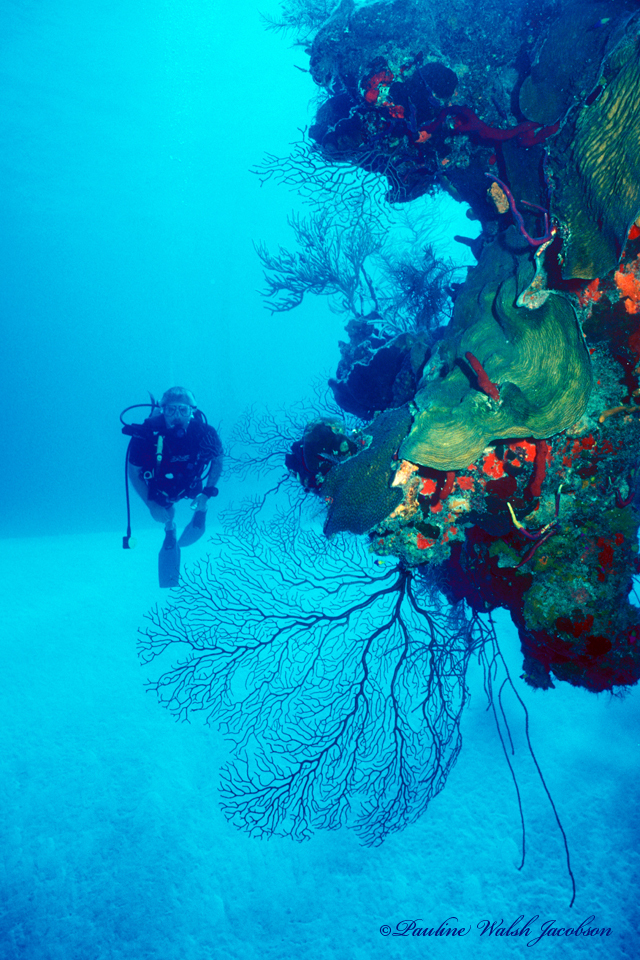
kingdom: Animalia
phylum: Cnidaria
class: Anthozoa
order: Malacalcyonacea
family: Melithaeidae
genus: Iciligorgia
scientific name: Iciligorgia schrammi
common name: Black sea fan
